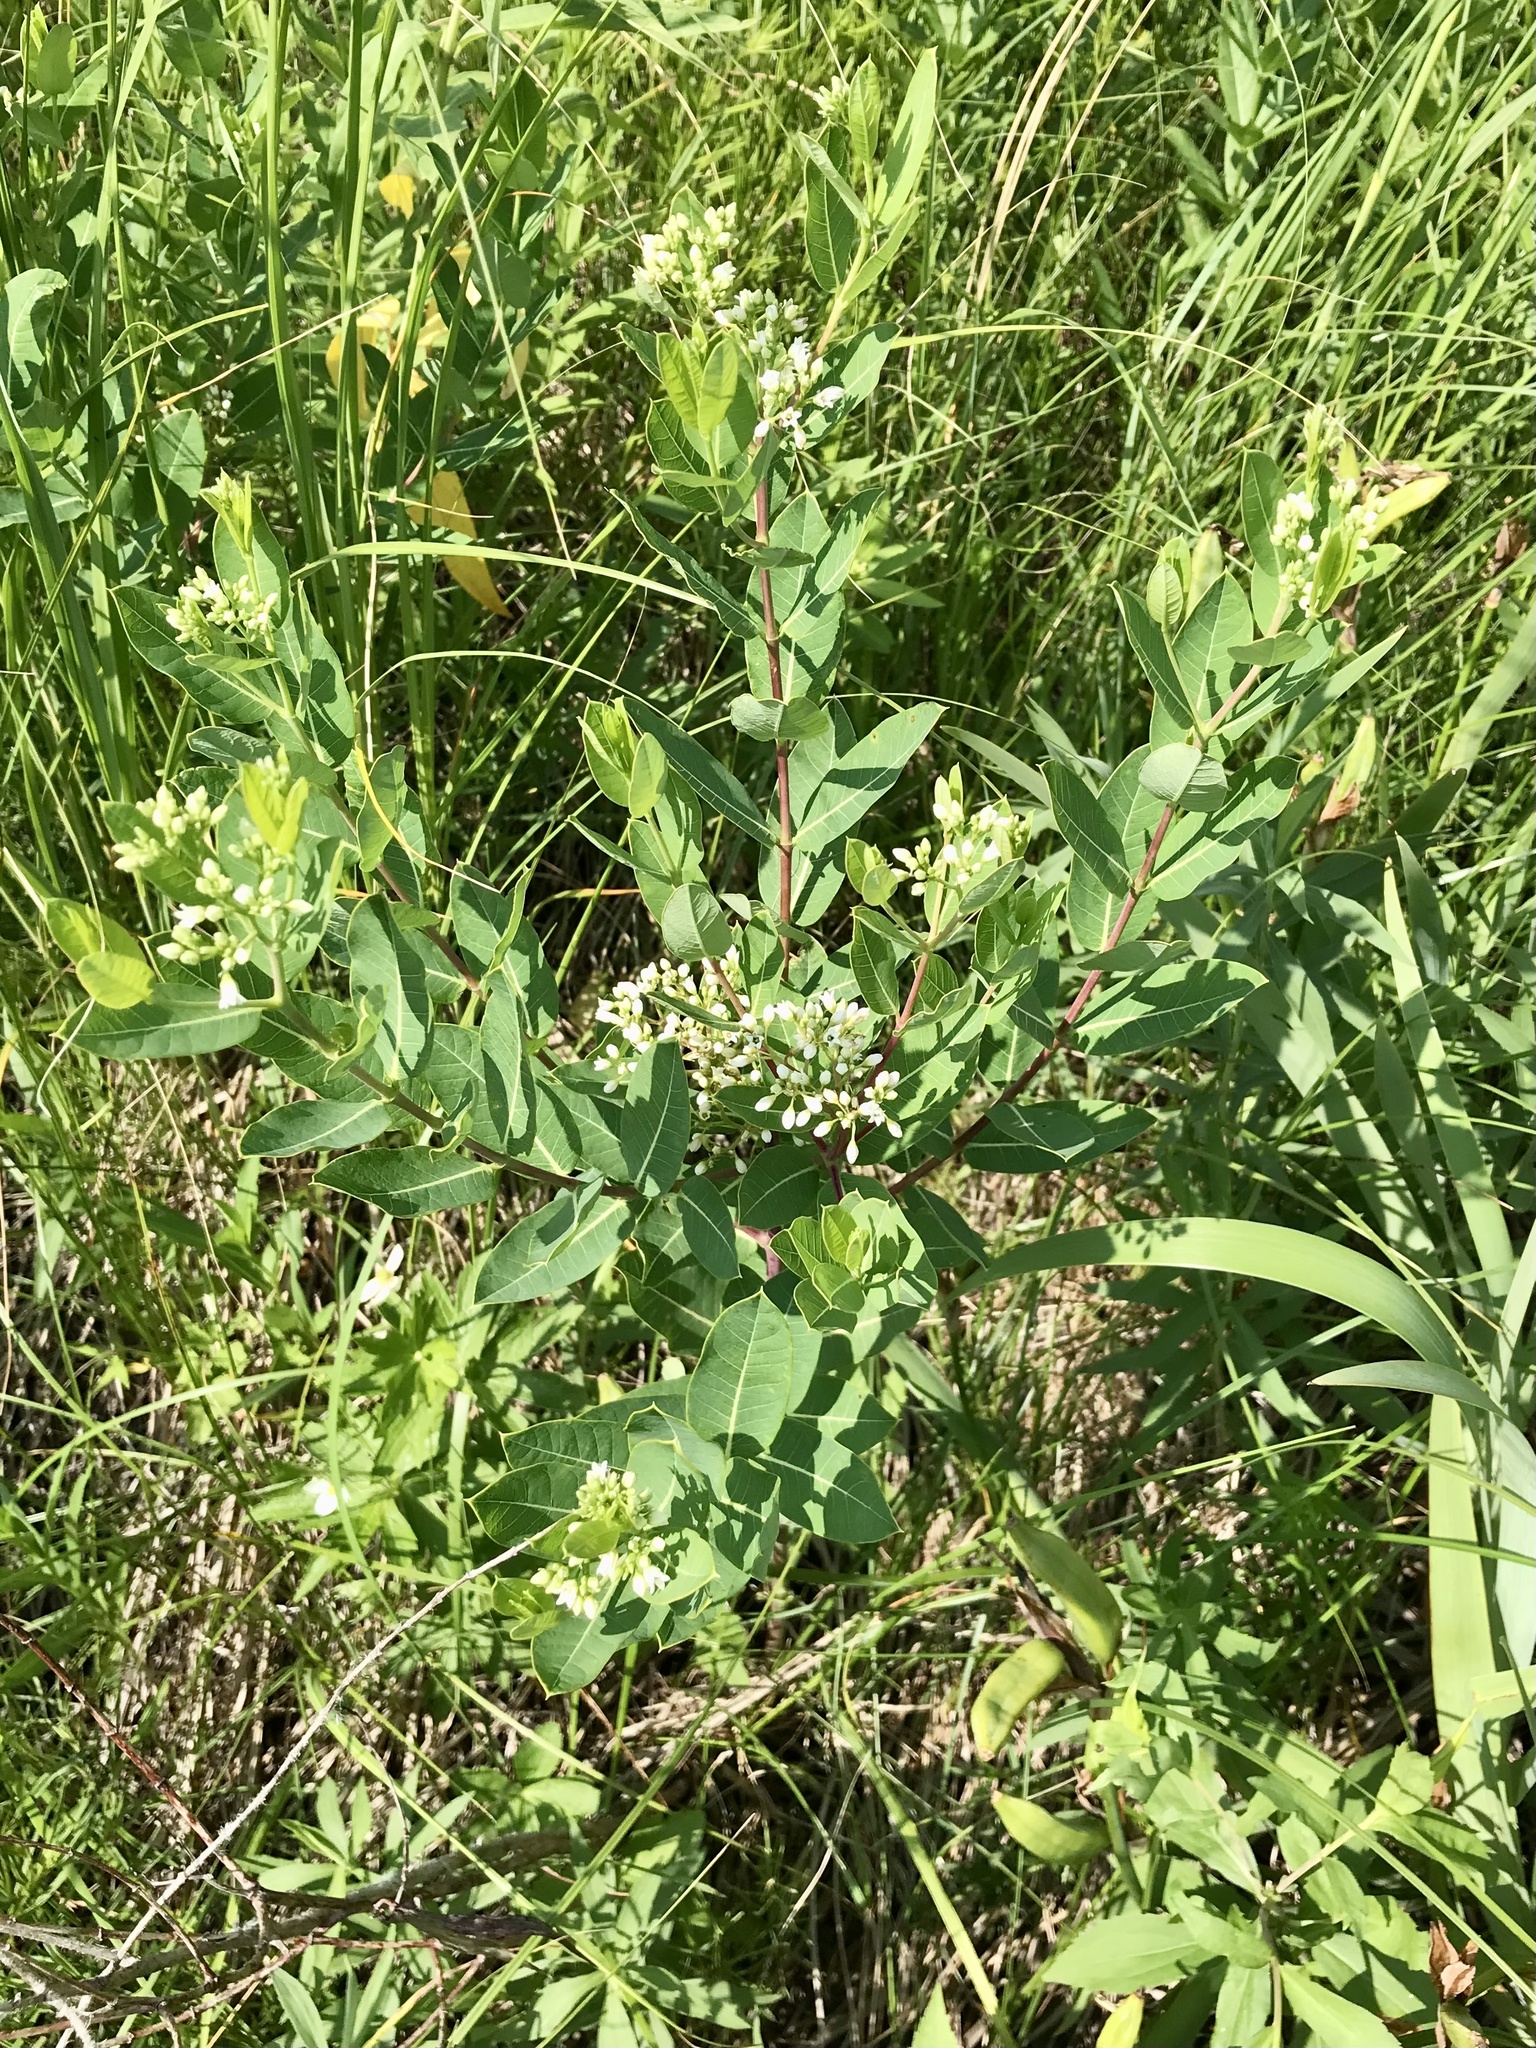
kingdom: Plantae
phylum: Tracheophyta
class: Magnoliopsida
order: Gentianales
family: Apocynaceae
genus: Apocynum
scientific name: Apocynum cannabinum
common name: Hemp dogbane
